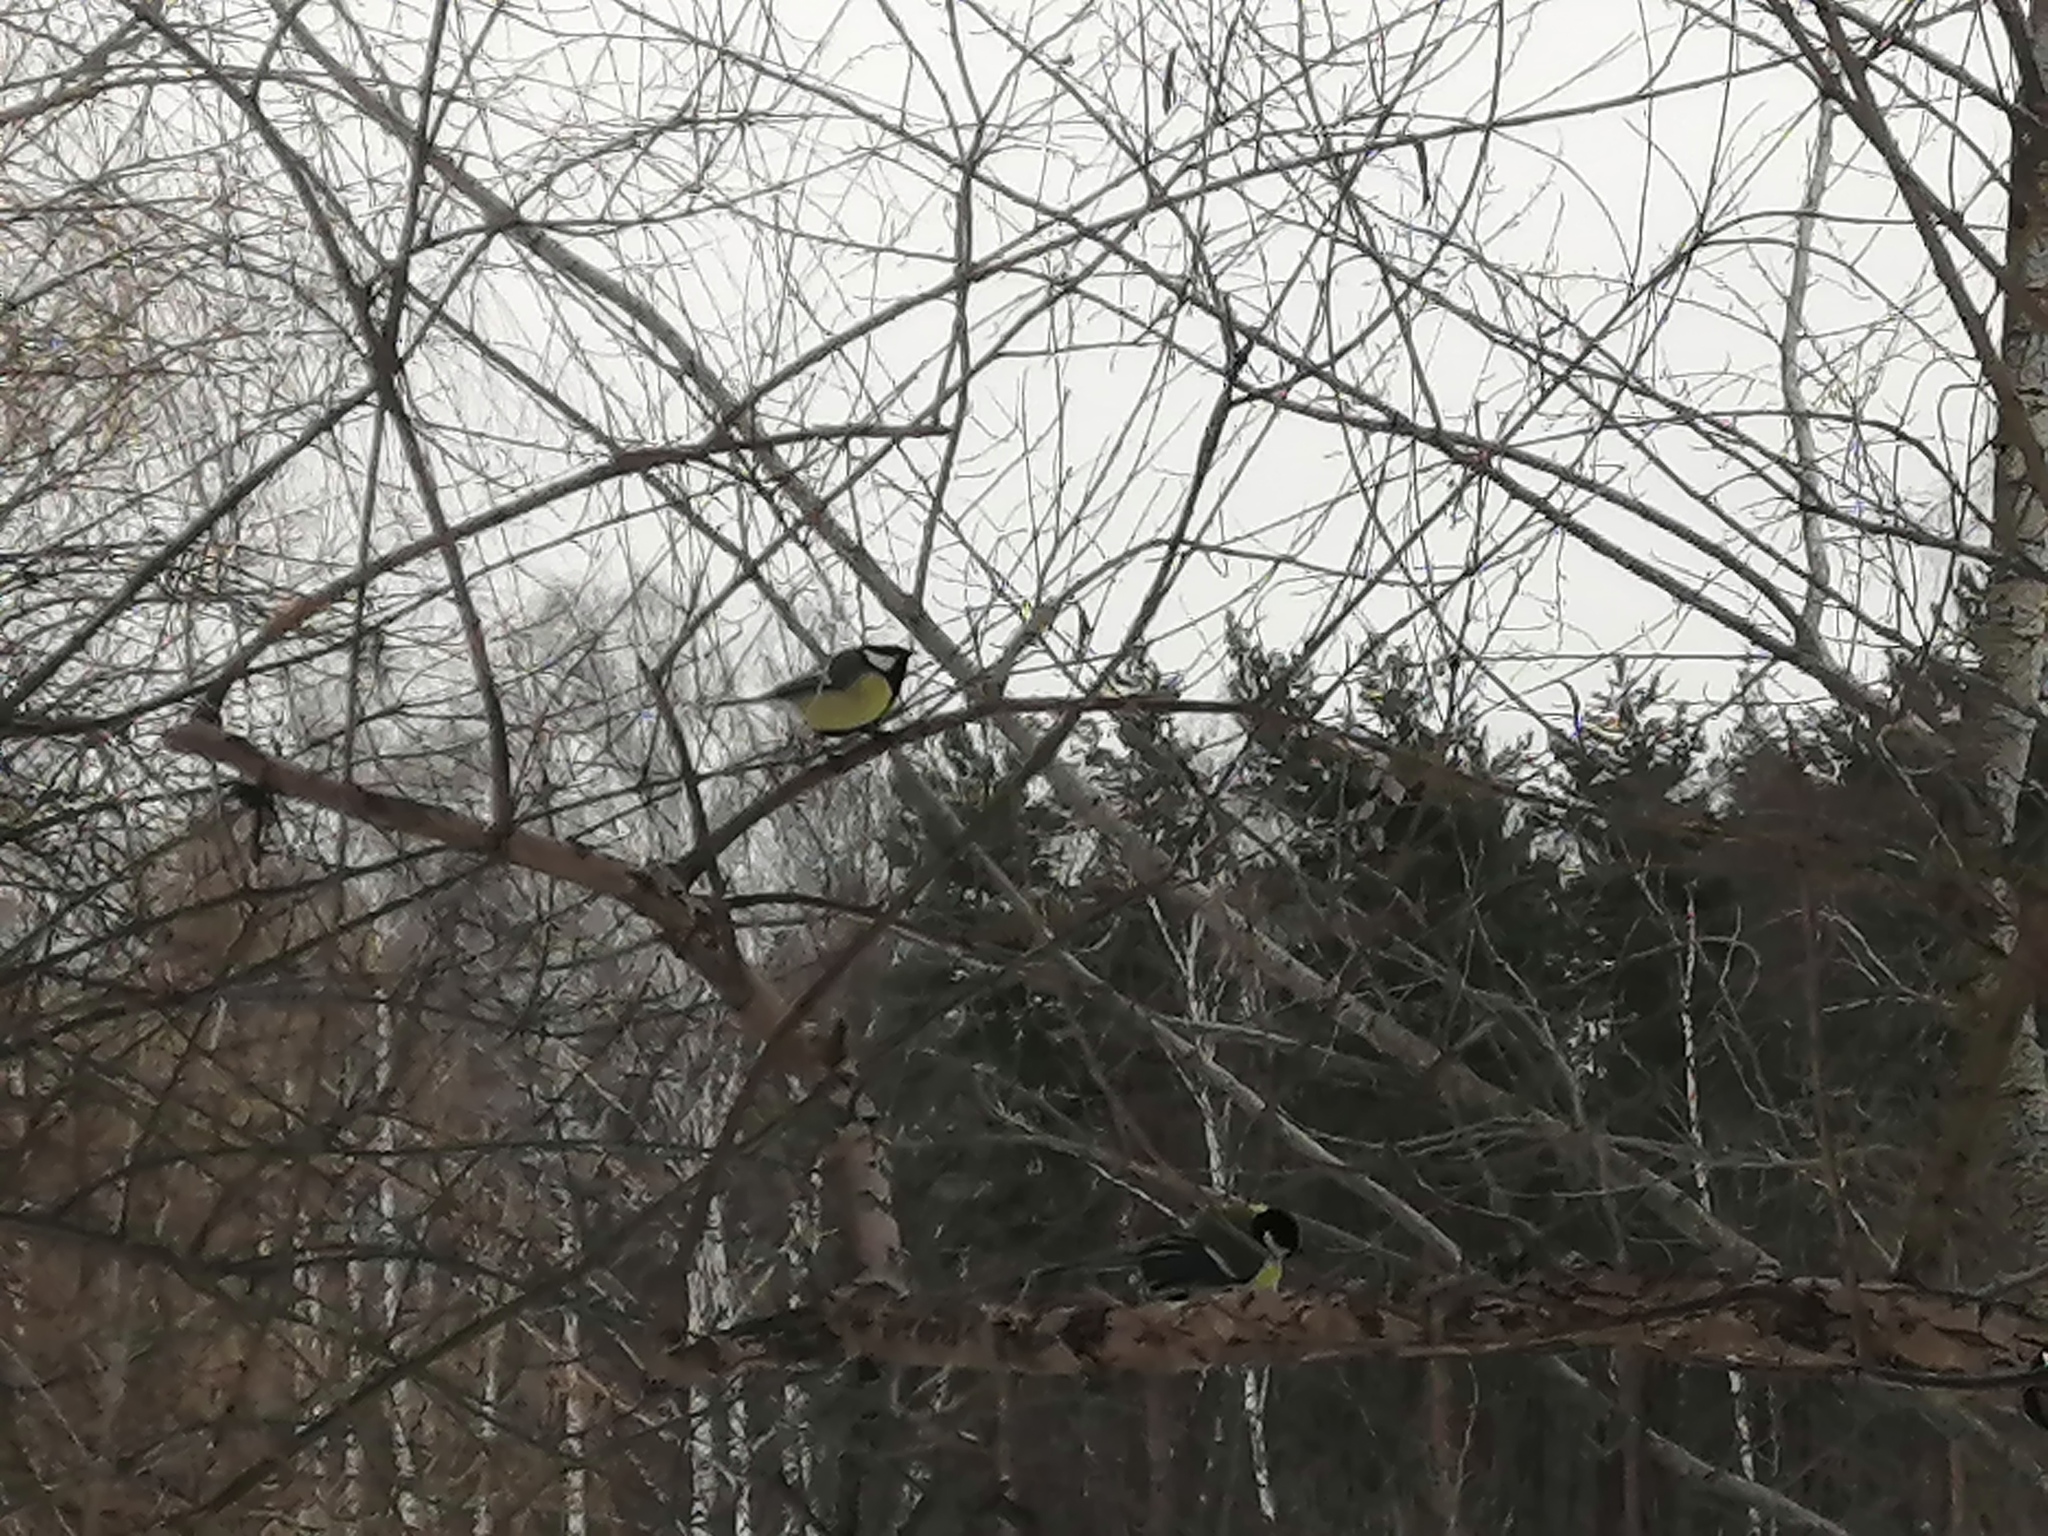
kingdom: Animalia
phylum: Chordata
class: Aves
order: Passeriformes
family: Paridae
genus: Parus
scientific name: Parus major
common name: Great tit
